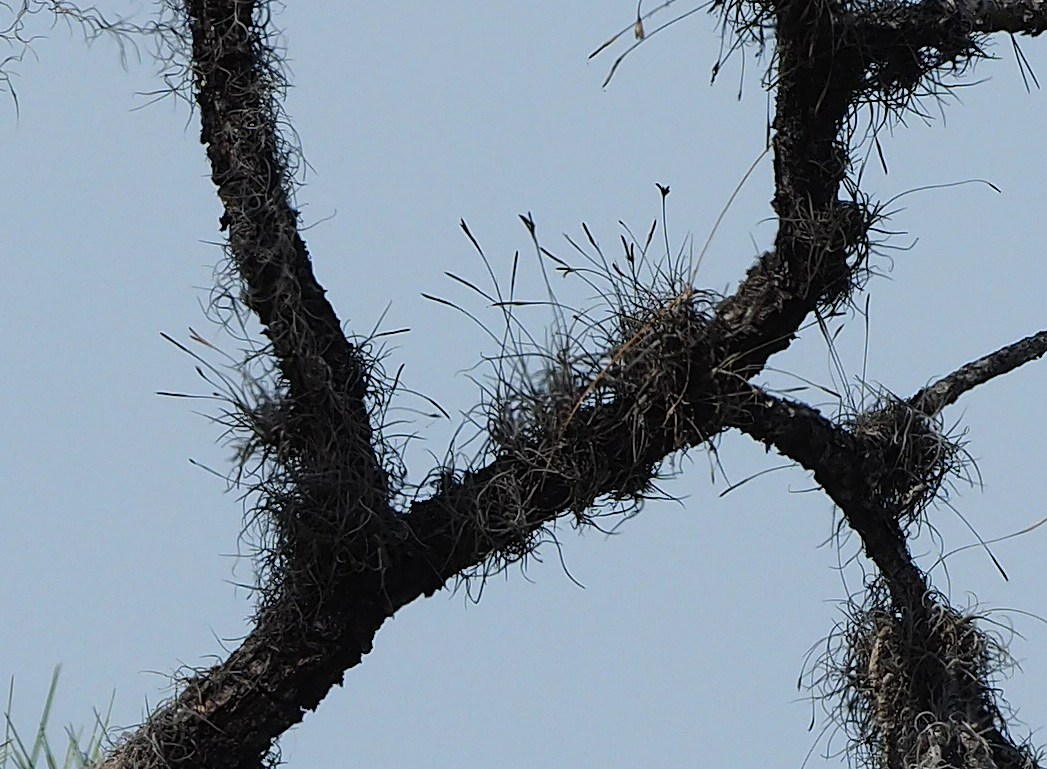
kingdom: Plantae
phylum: Tracheophyta
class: Liliopsida
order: Poales
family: Bromeliaceae
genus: Tillandsia
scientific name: Tillandsia recurvata
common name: Small ballmoss
